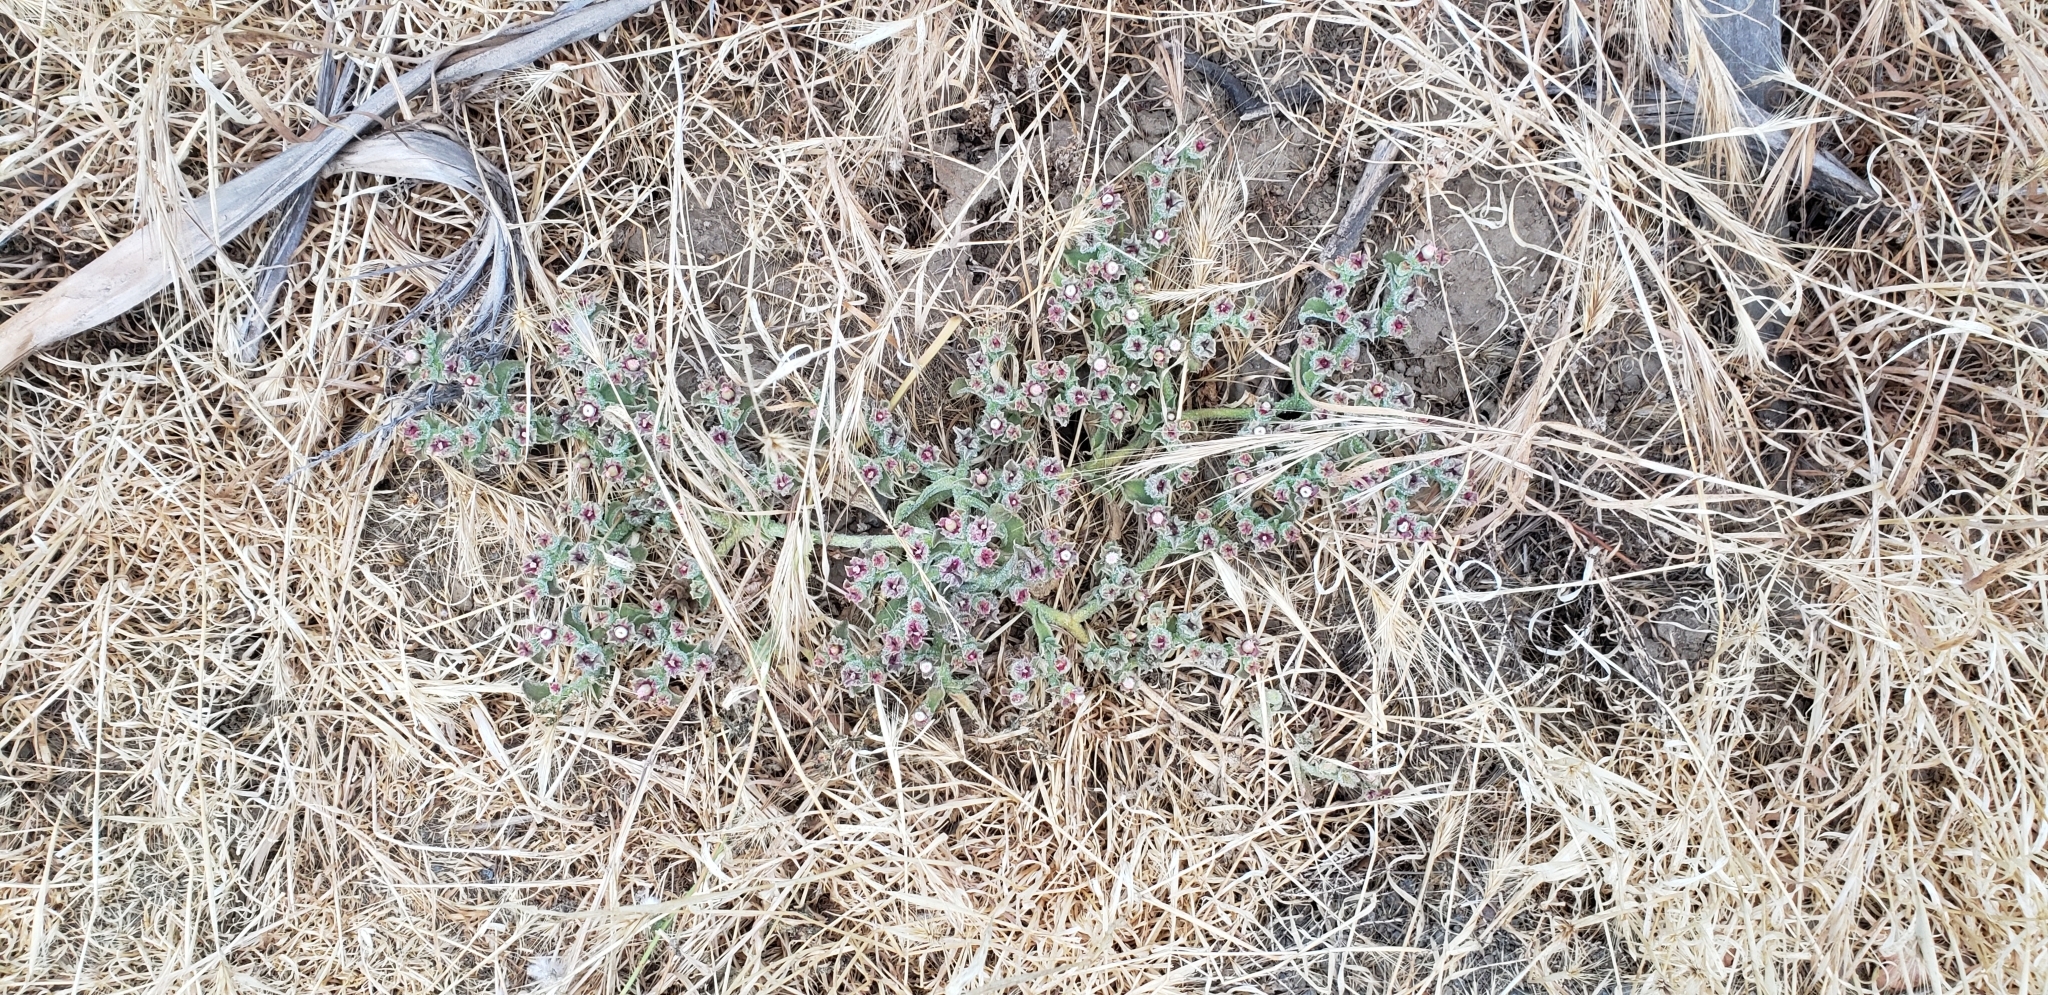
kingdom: Plantae
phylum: Tracheophyta
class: Magnoliopsida
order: Caryophyllales
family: Aizoaceae
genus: Mesembryanthemum
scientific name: Mesembryanthemum crystallinum
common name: Common iceplant
